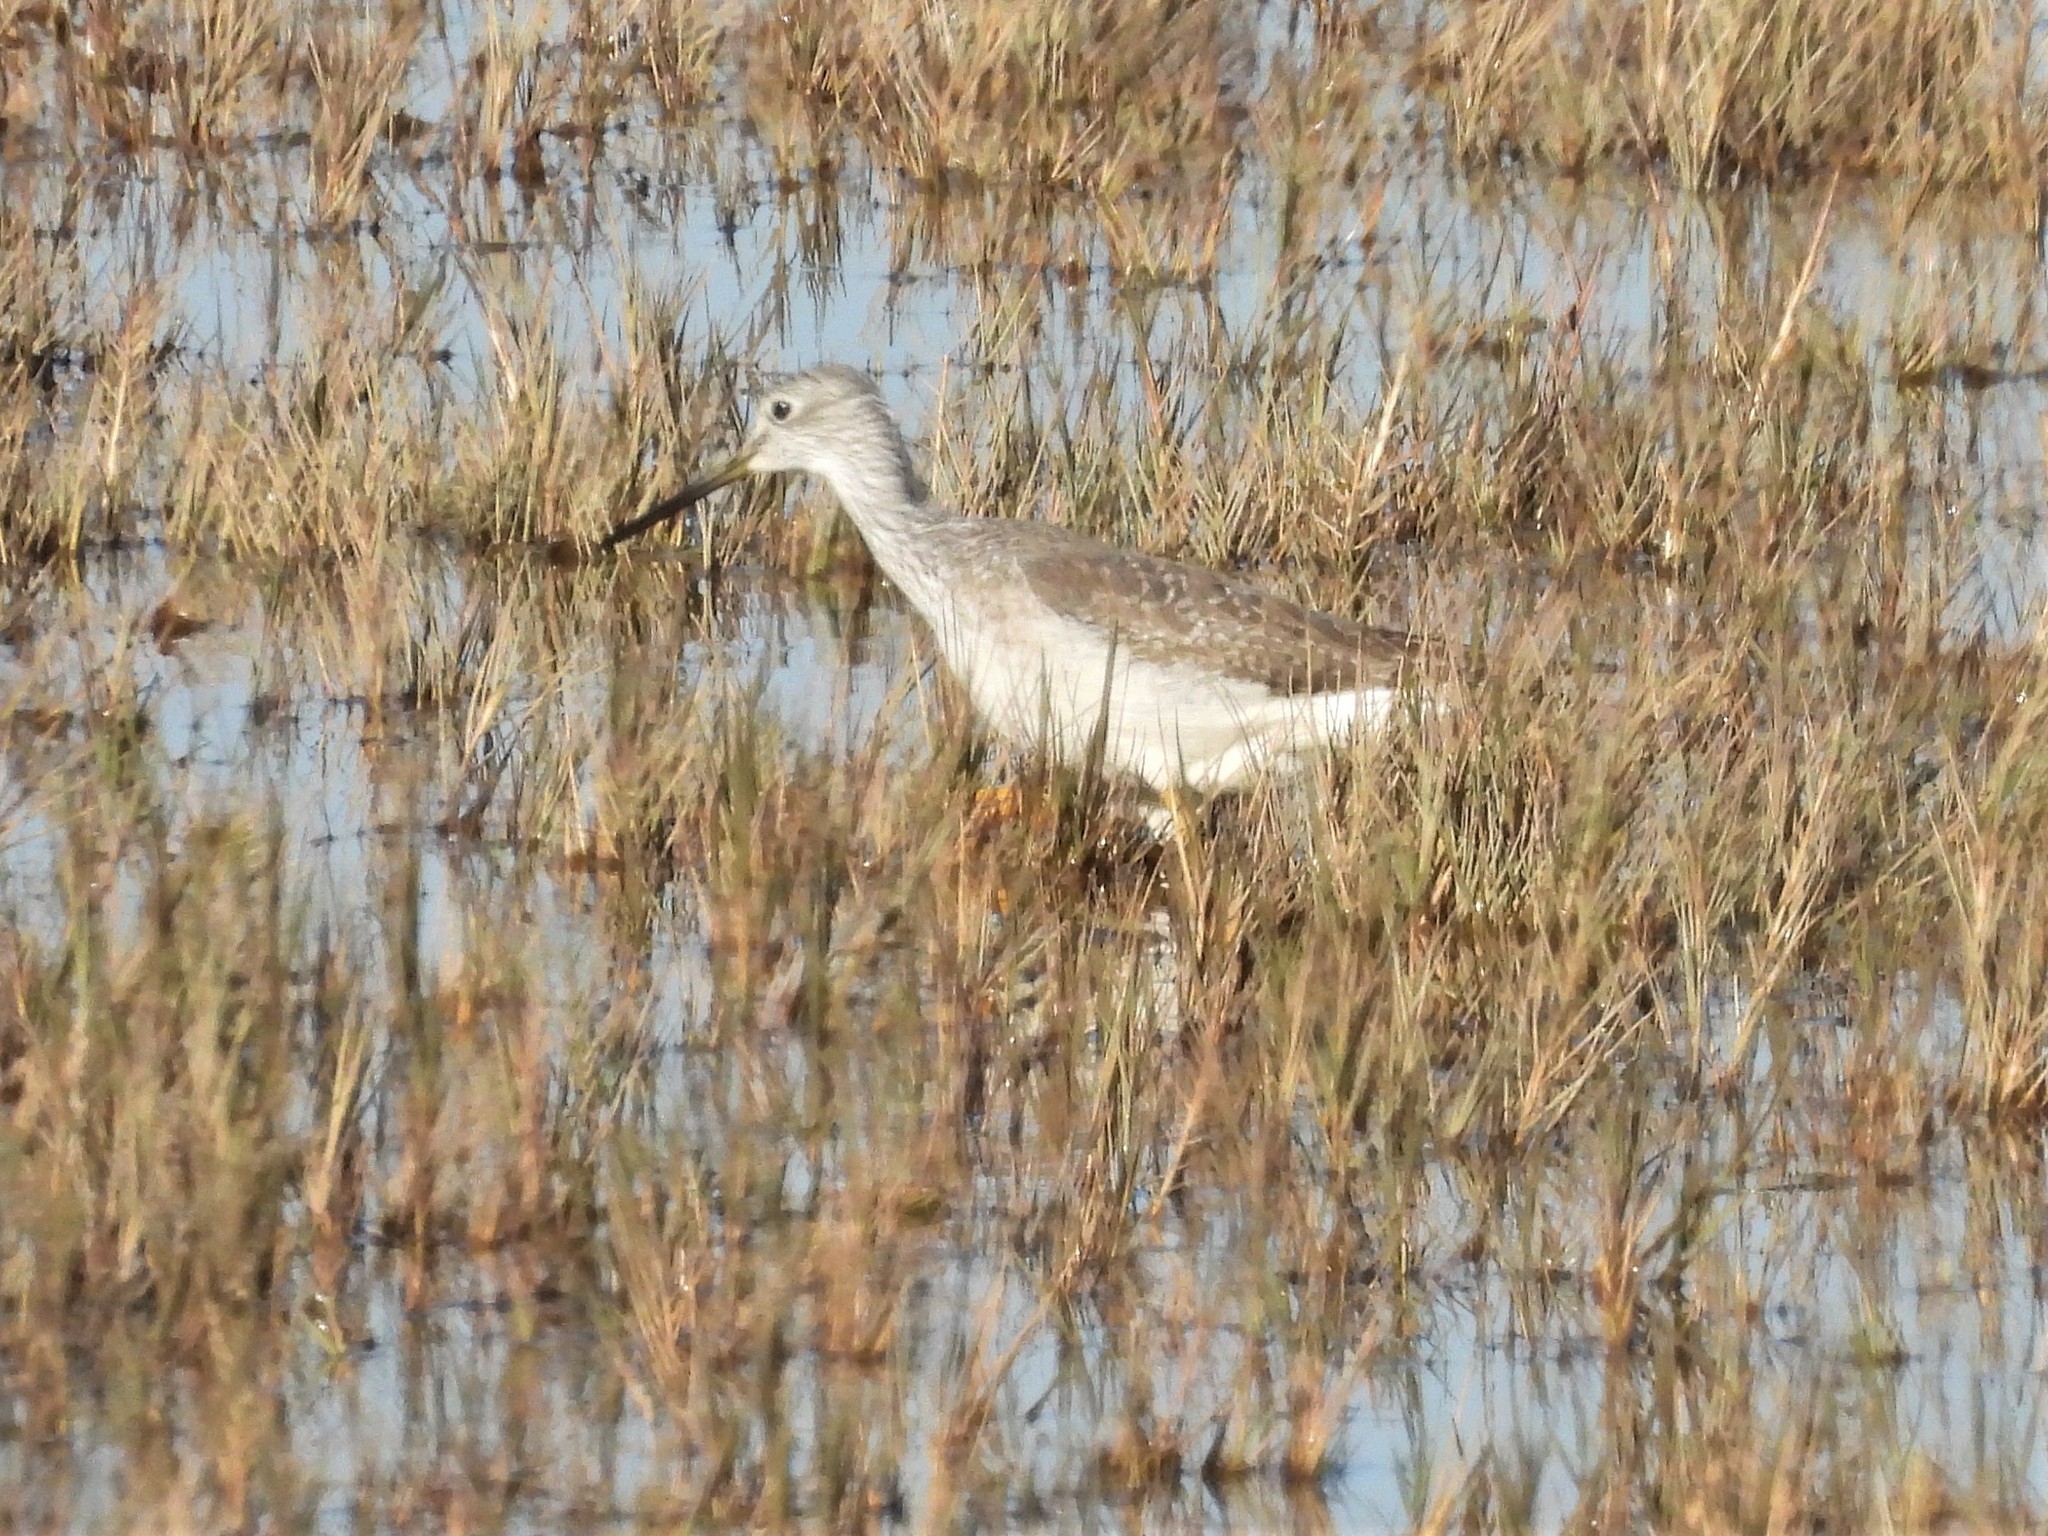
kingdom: Animalia
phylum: Chordata
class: Aves
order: Charadriiformes
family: Scolopacidae
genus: Tringa
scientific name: Tringa melanoleuca
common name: Greater yellowlegs
